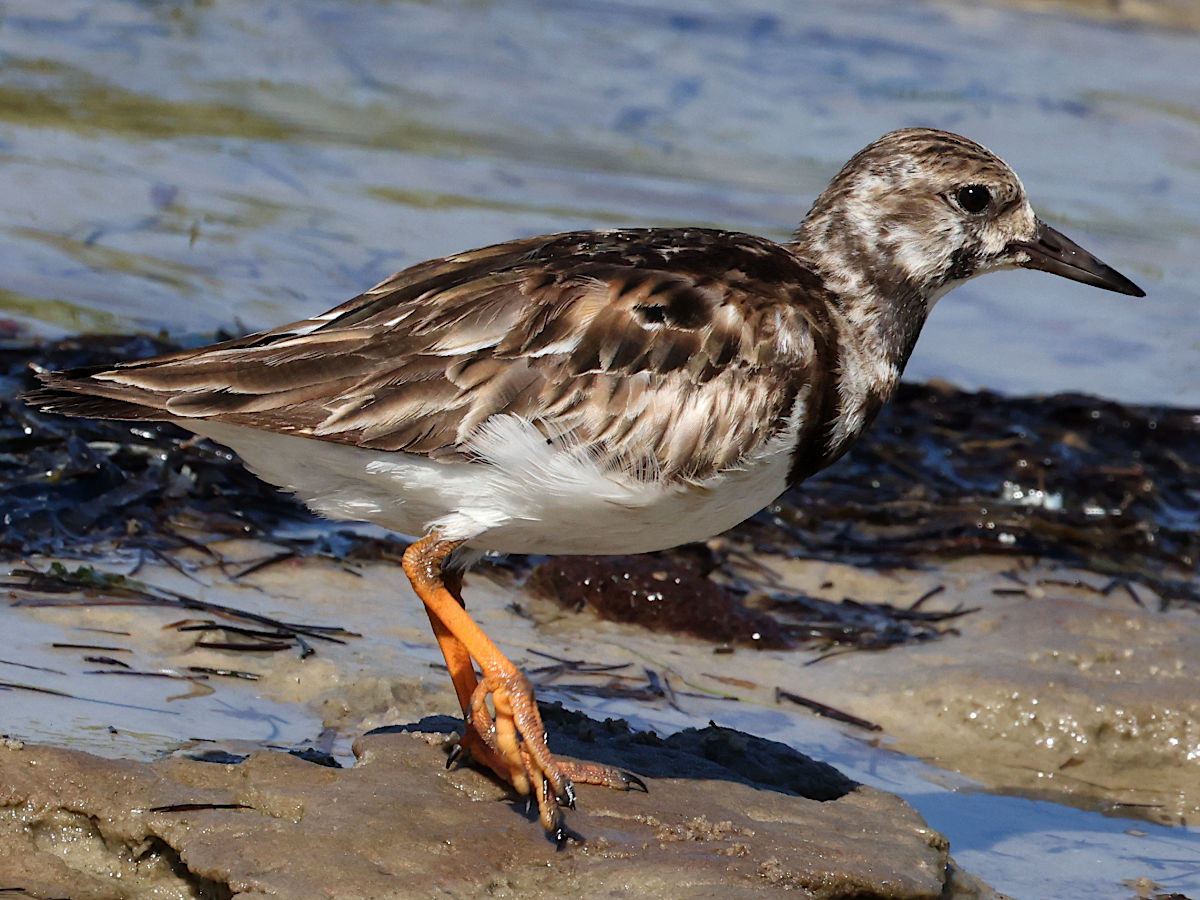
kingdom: Animalia
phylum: Chordata
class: Aves
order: Charadriiformes
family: Scolopacidae
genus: Arenaria
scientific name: Arenaria interpres
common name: Ruddy turnstone
